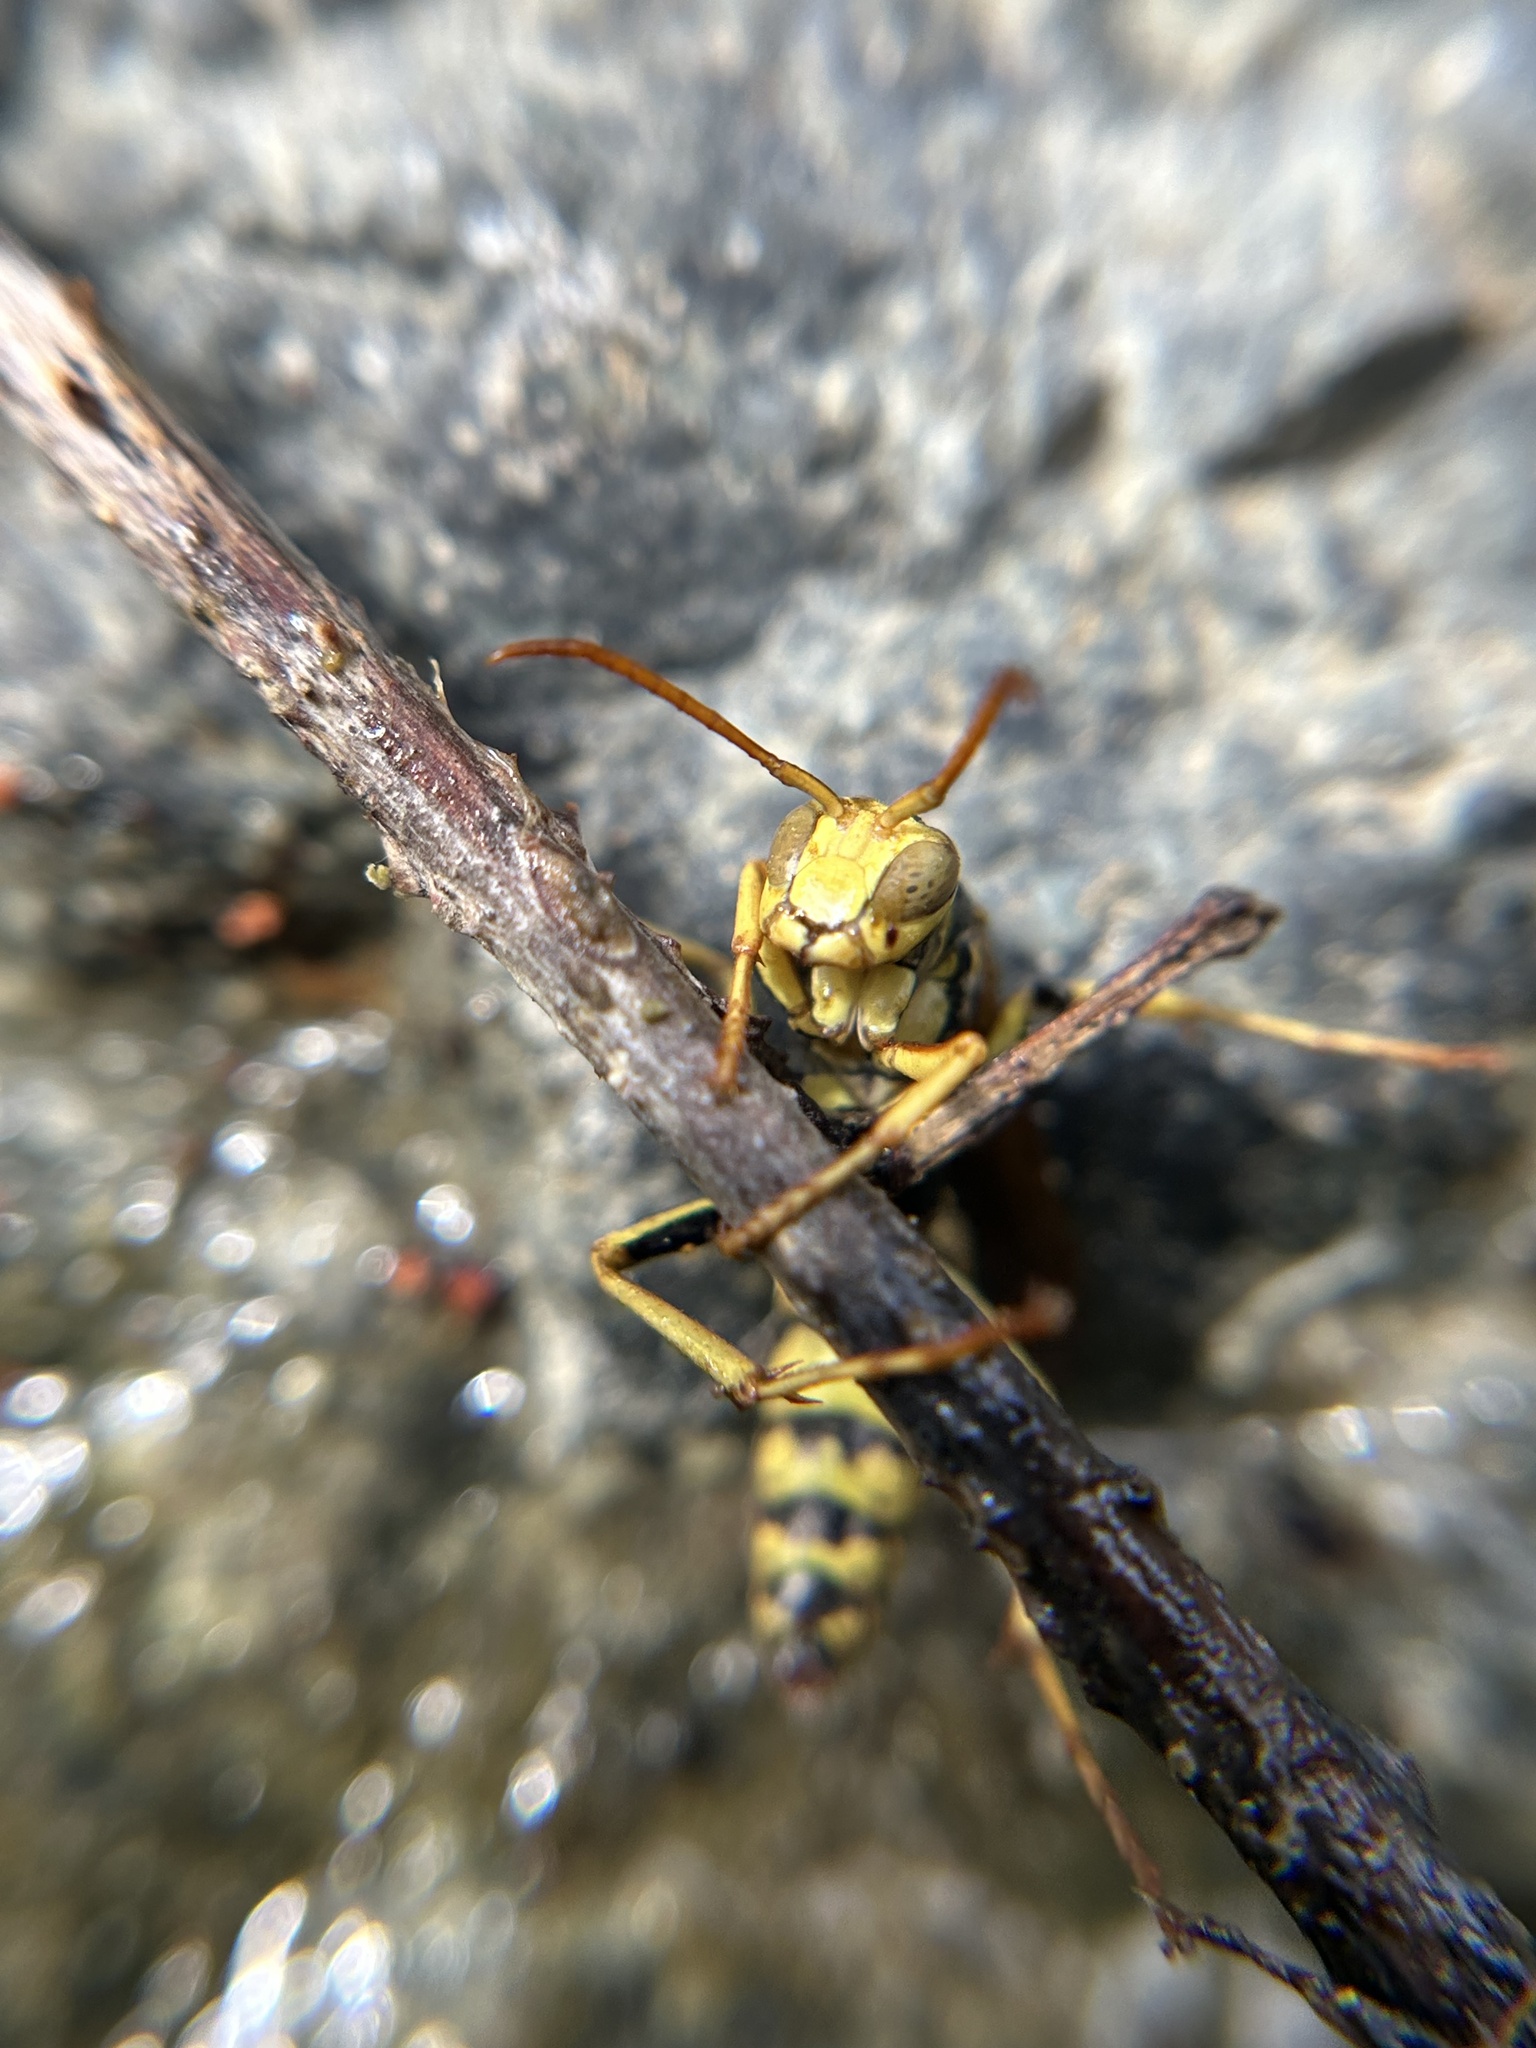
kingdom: Animalia
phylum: Arthropoda
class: Insecta
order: Hymenoptera
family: Eumenidae
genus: Polistes
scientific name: Polistes aurifer
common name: Paper wasp
